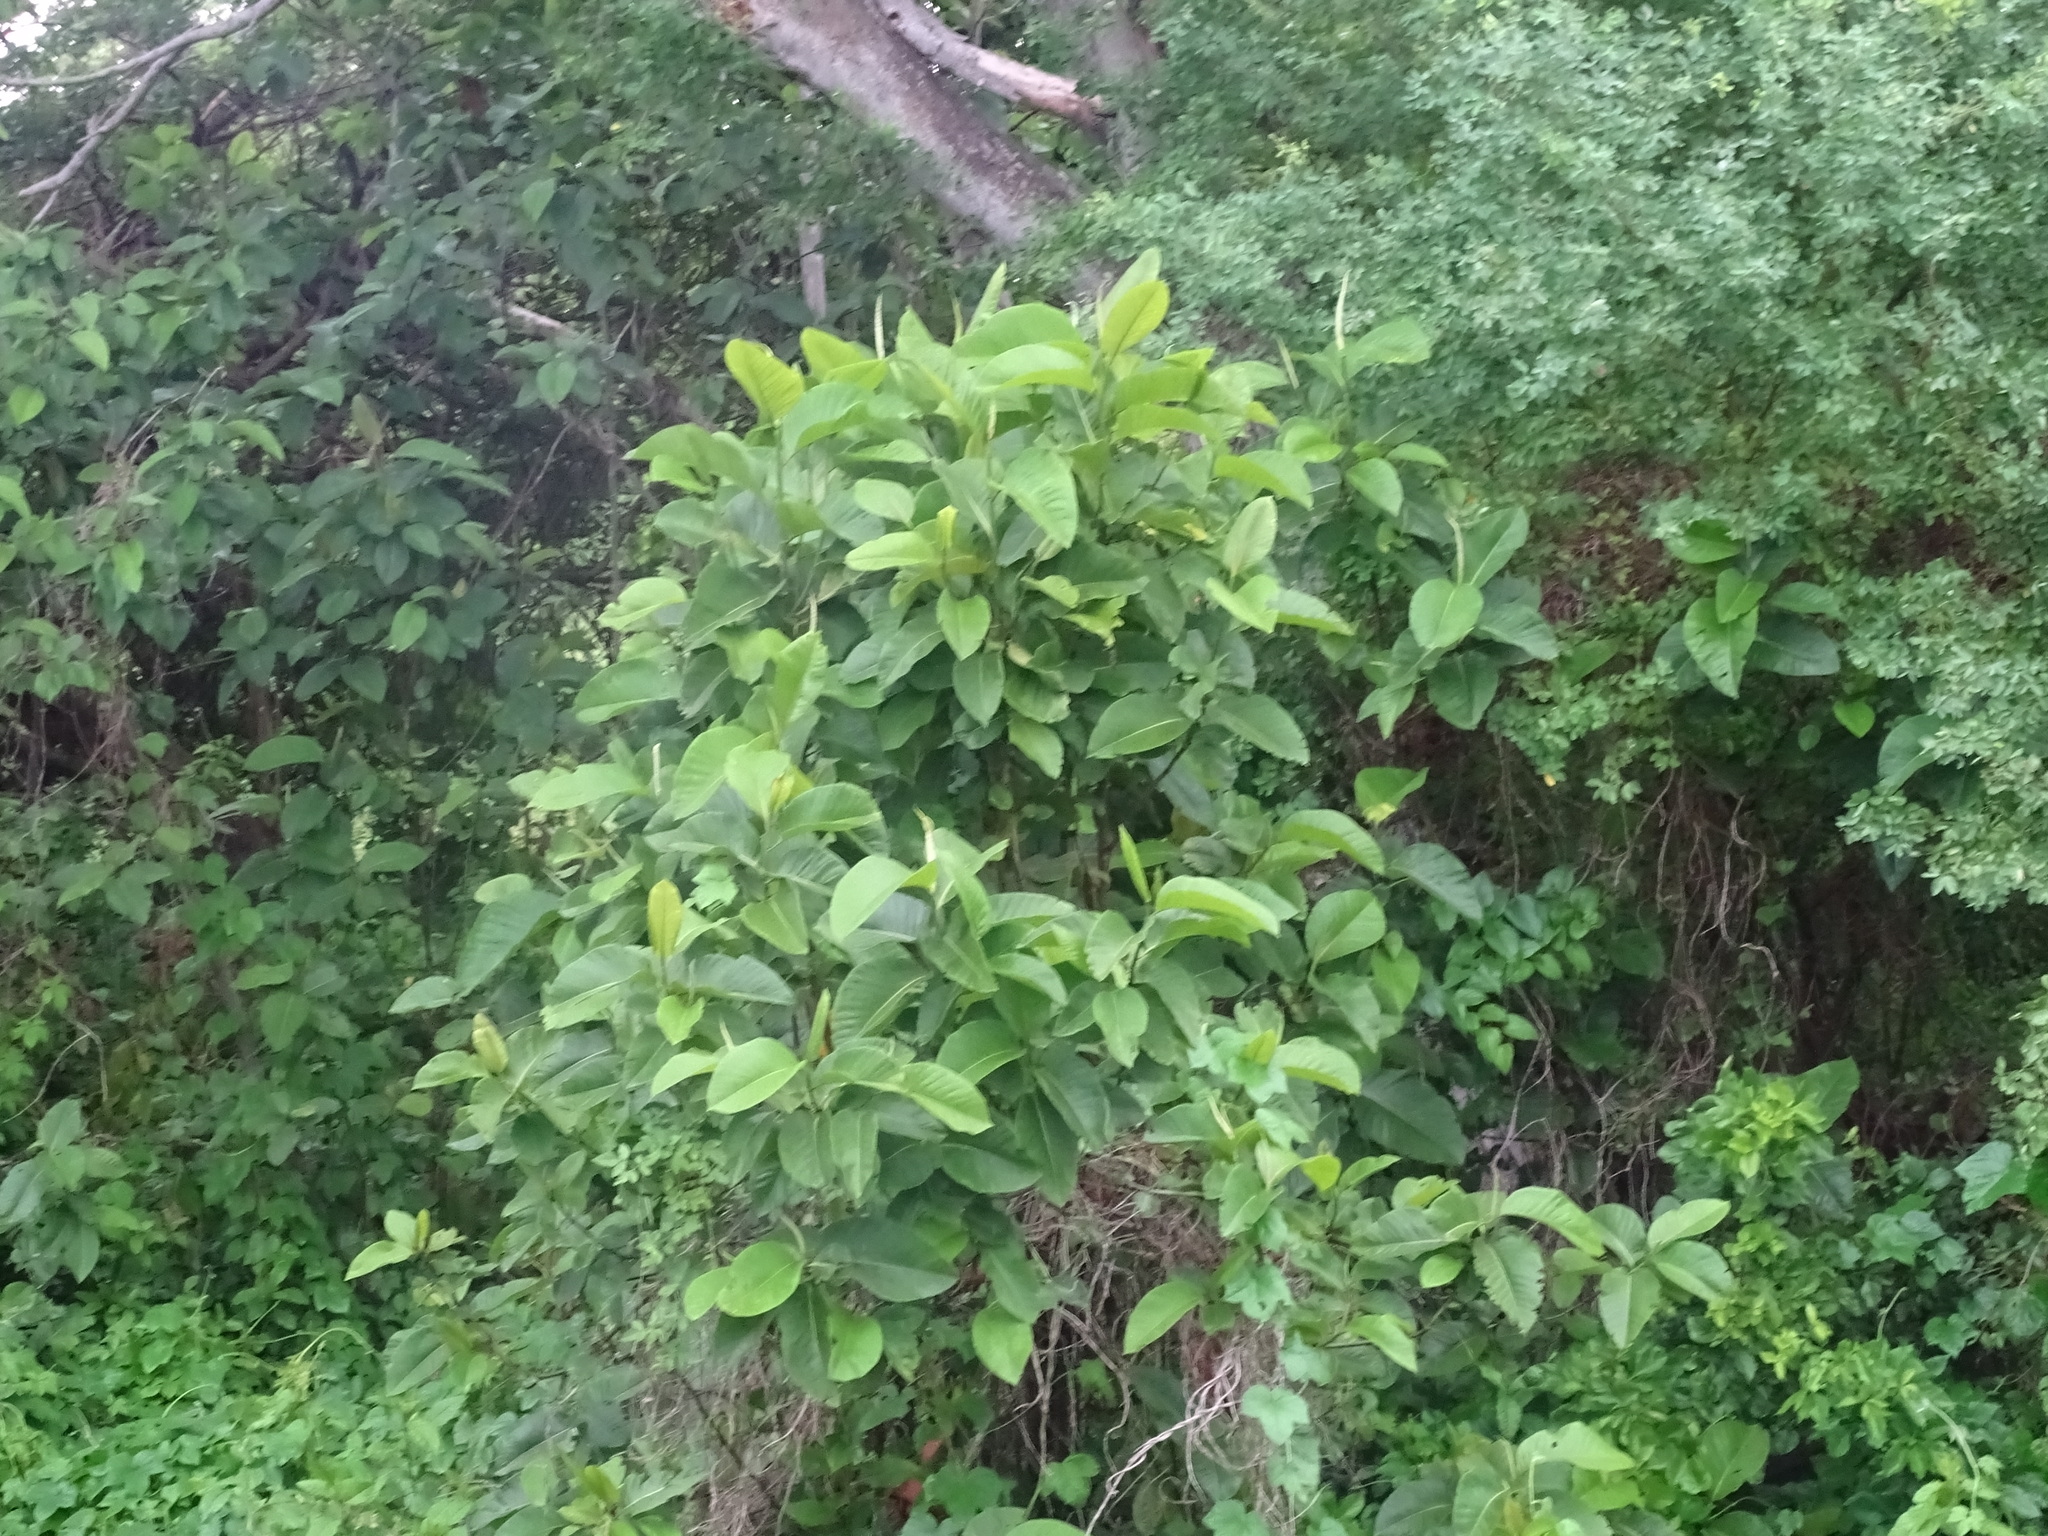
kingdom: Plantae
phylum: Tracheophyta
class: Magnoliopsida
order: Caryophyllales
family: Polygonaceae
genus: Triplaris
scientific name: Triplaris melaenodendron
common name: Long john
